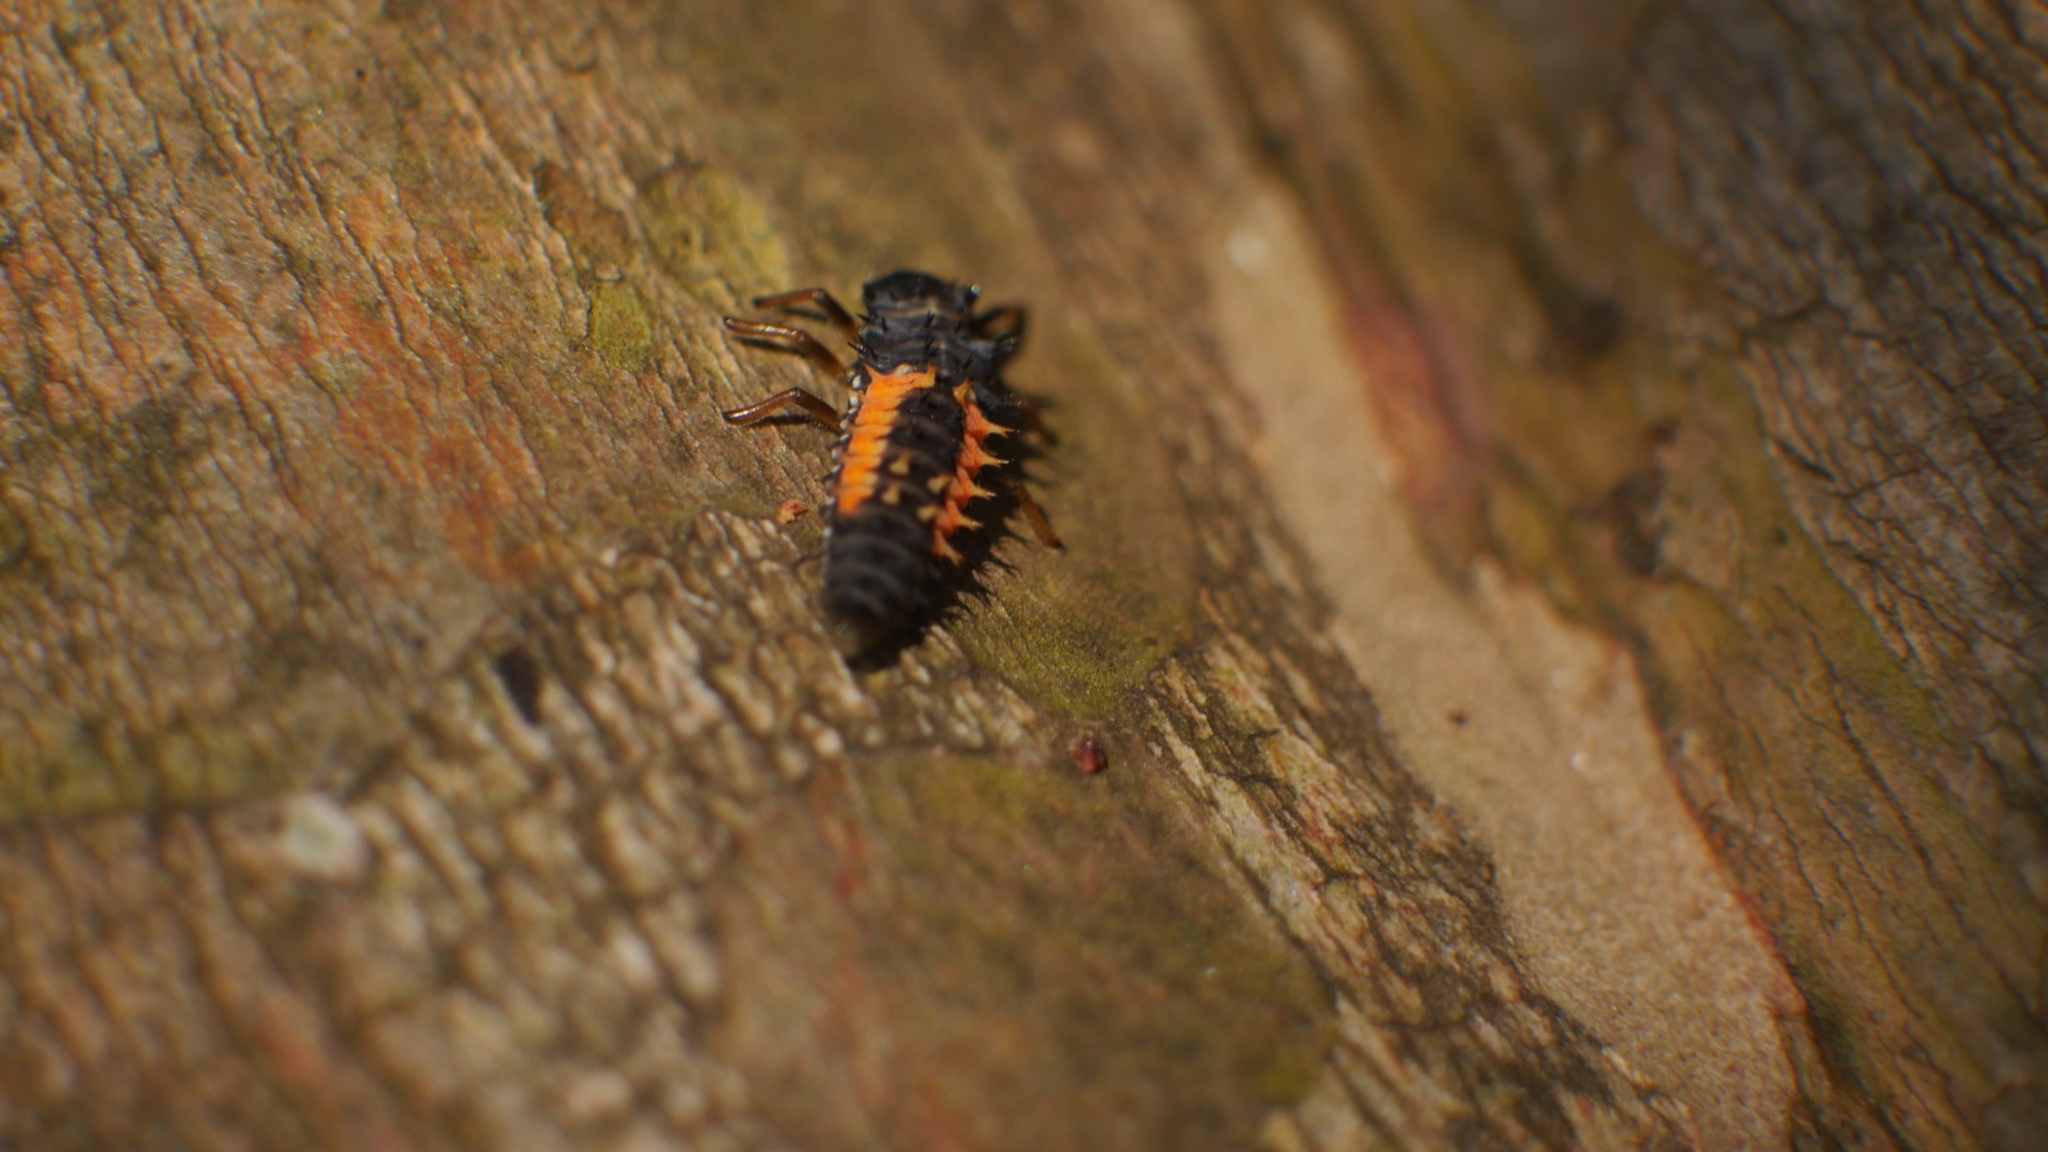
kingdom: Animalia
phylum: Arthropoda
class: Insecta
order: Coleoptera
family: Coccinellidae
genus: Harmonia
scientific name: Harmonia axyridis
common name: Harlequin ladybird
